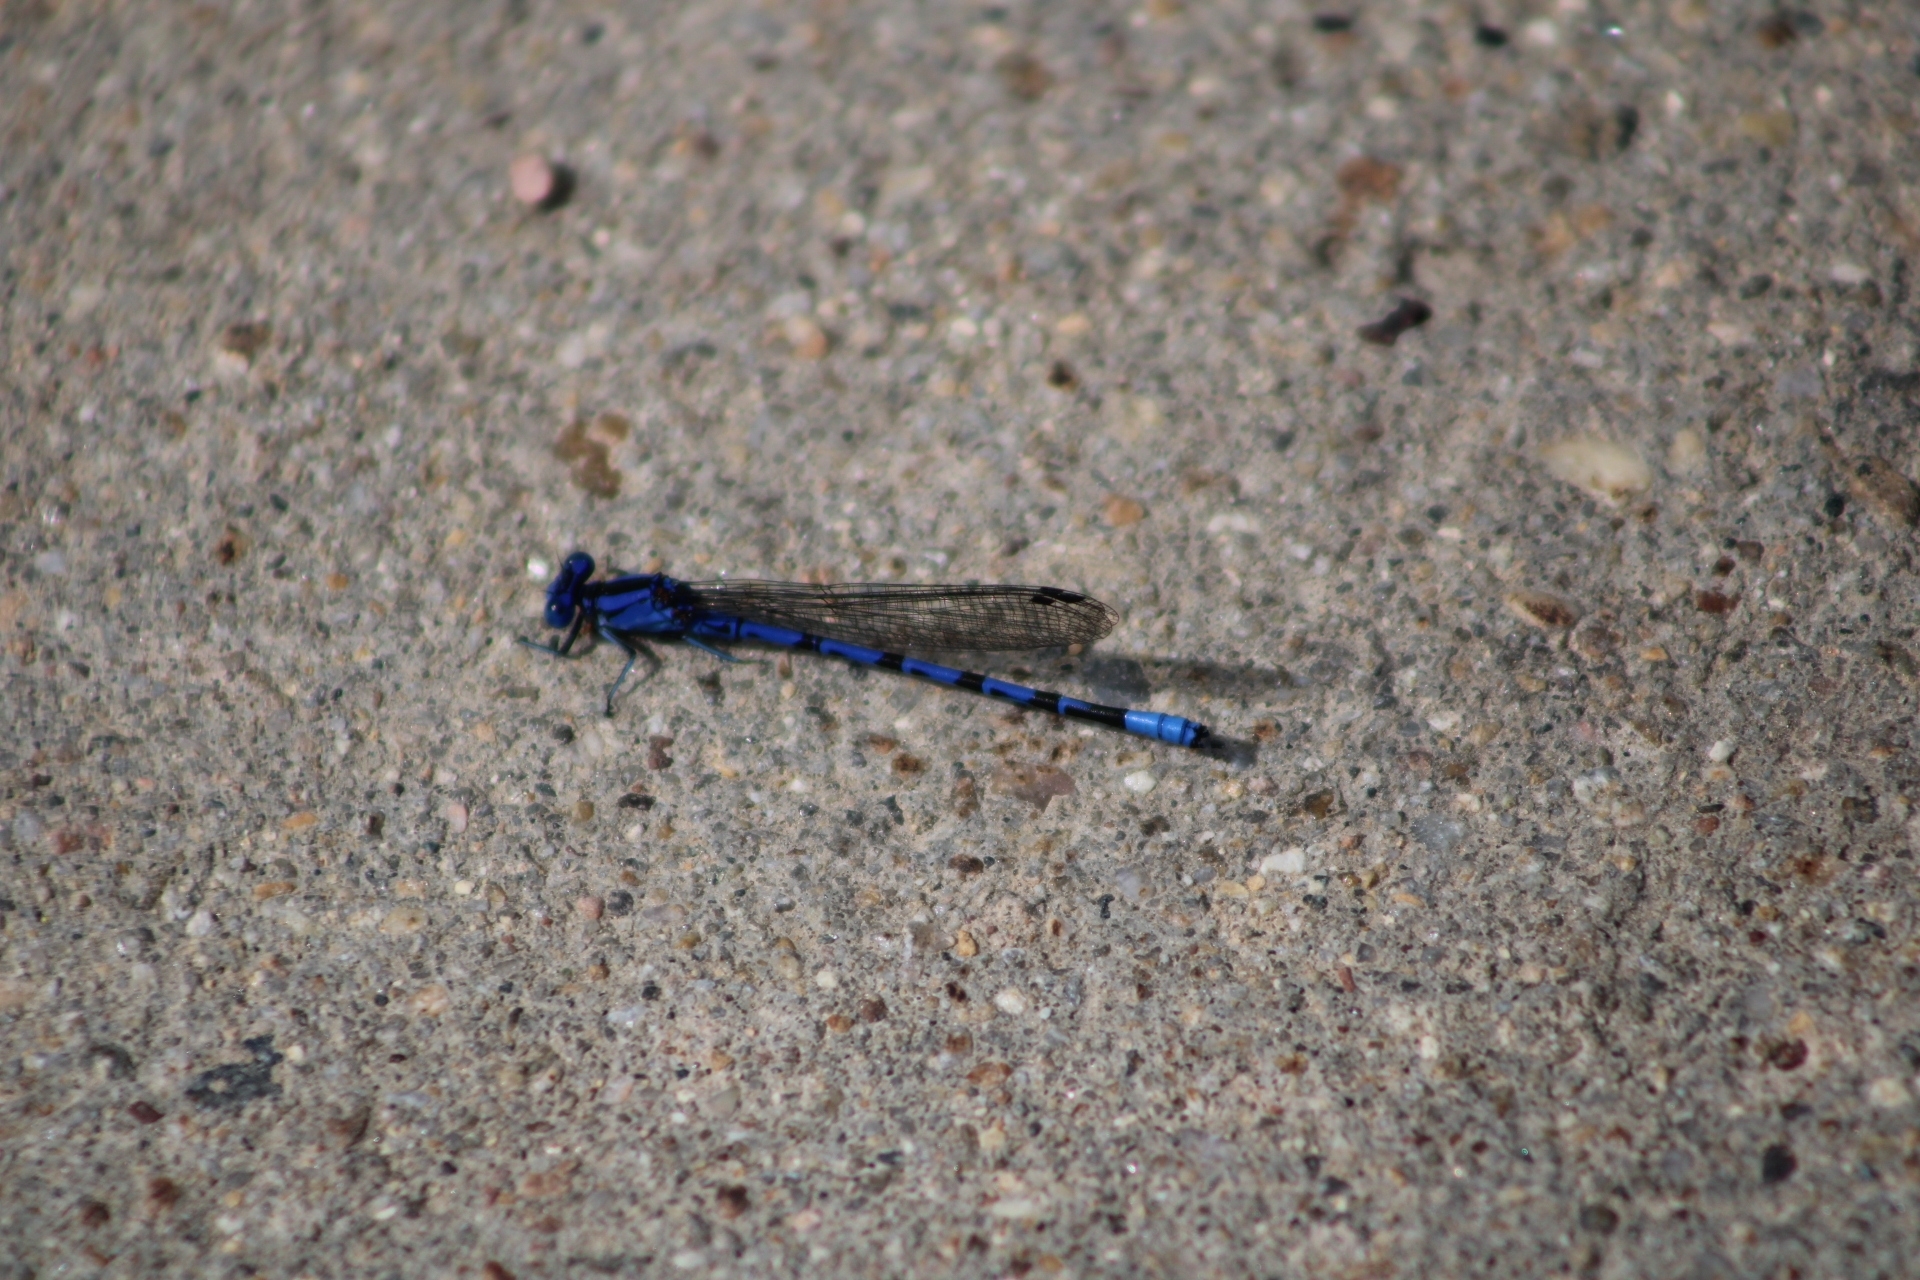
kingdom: Animalia
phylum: Arthropoda
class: Insecta
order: Odonata
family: Coenagrionidae
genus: Argia
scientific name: Argia vivida
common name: Vivid dancer
